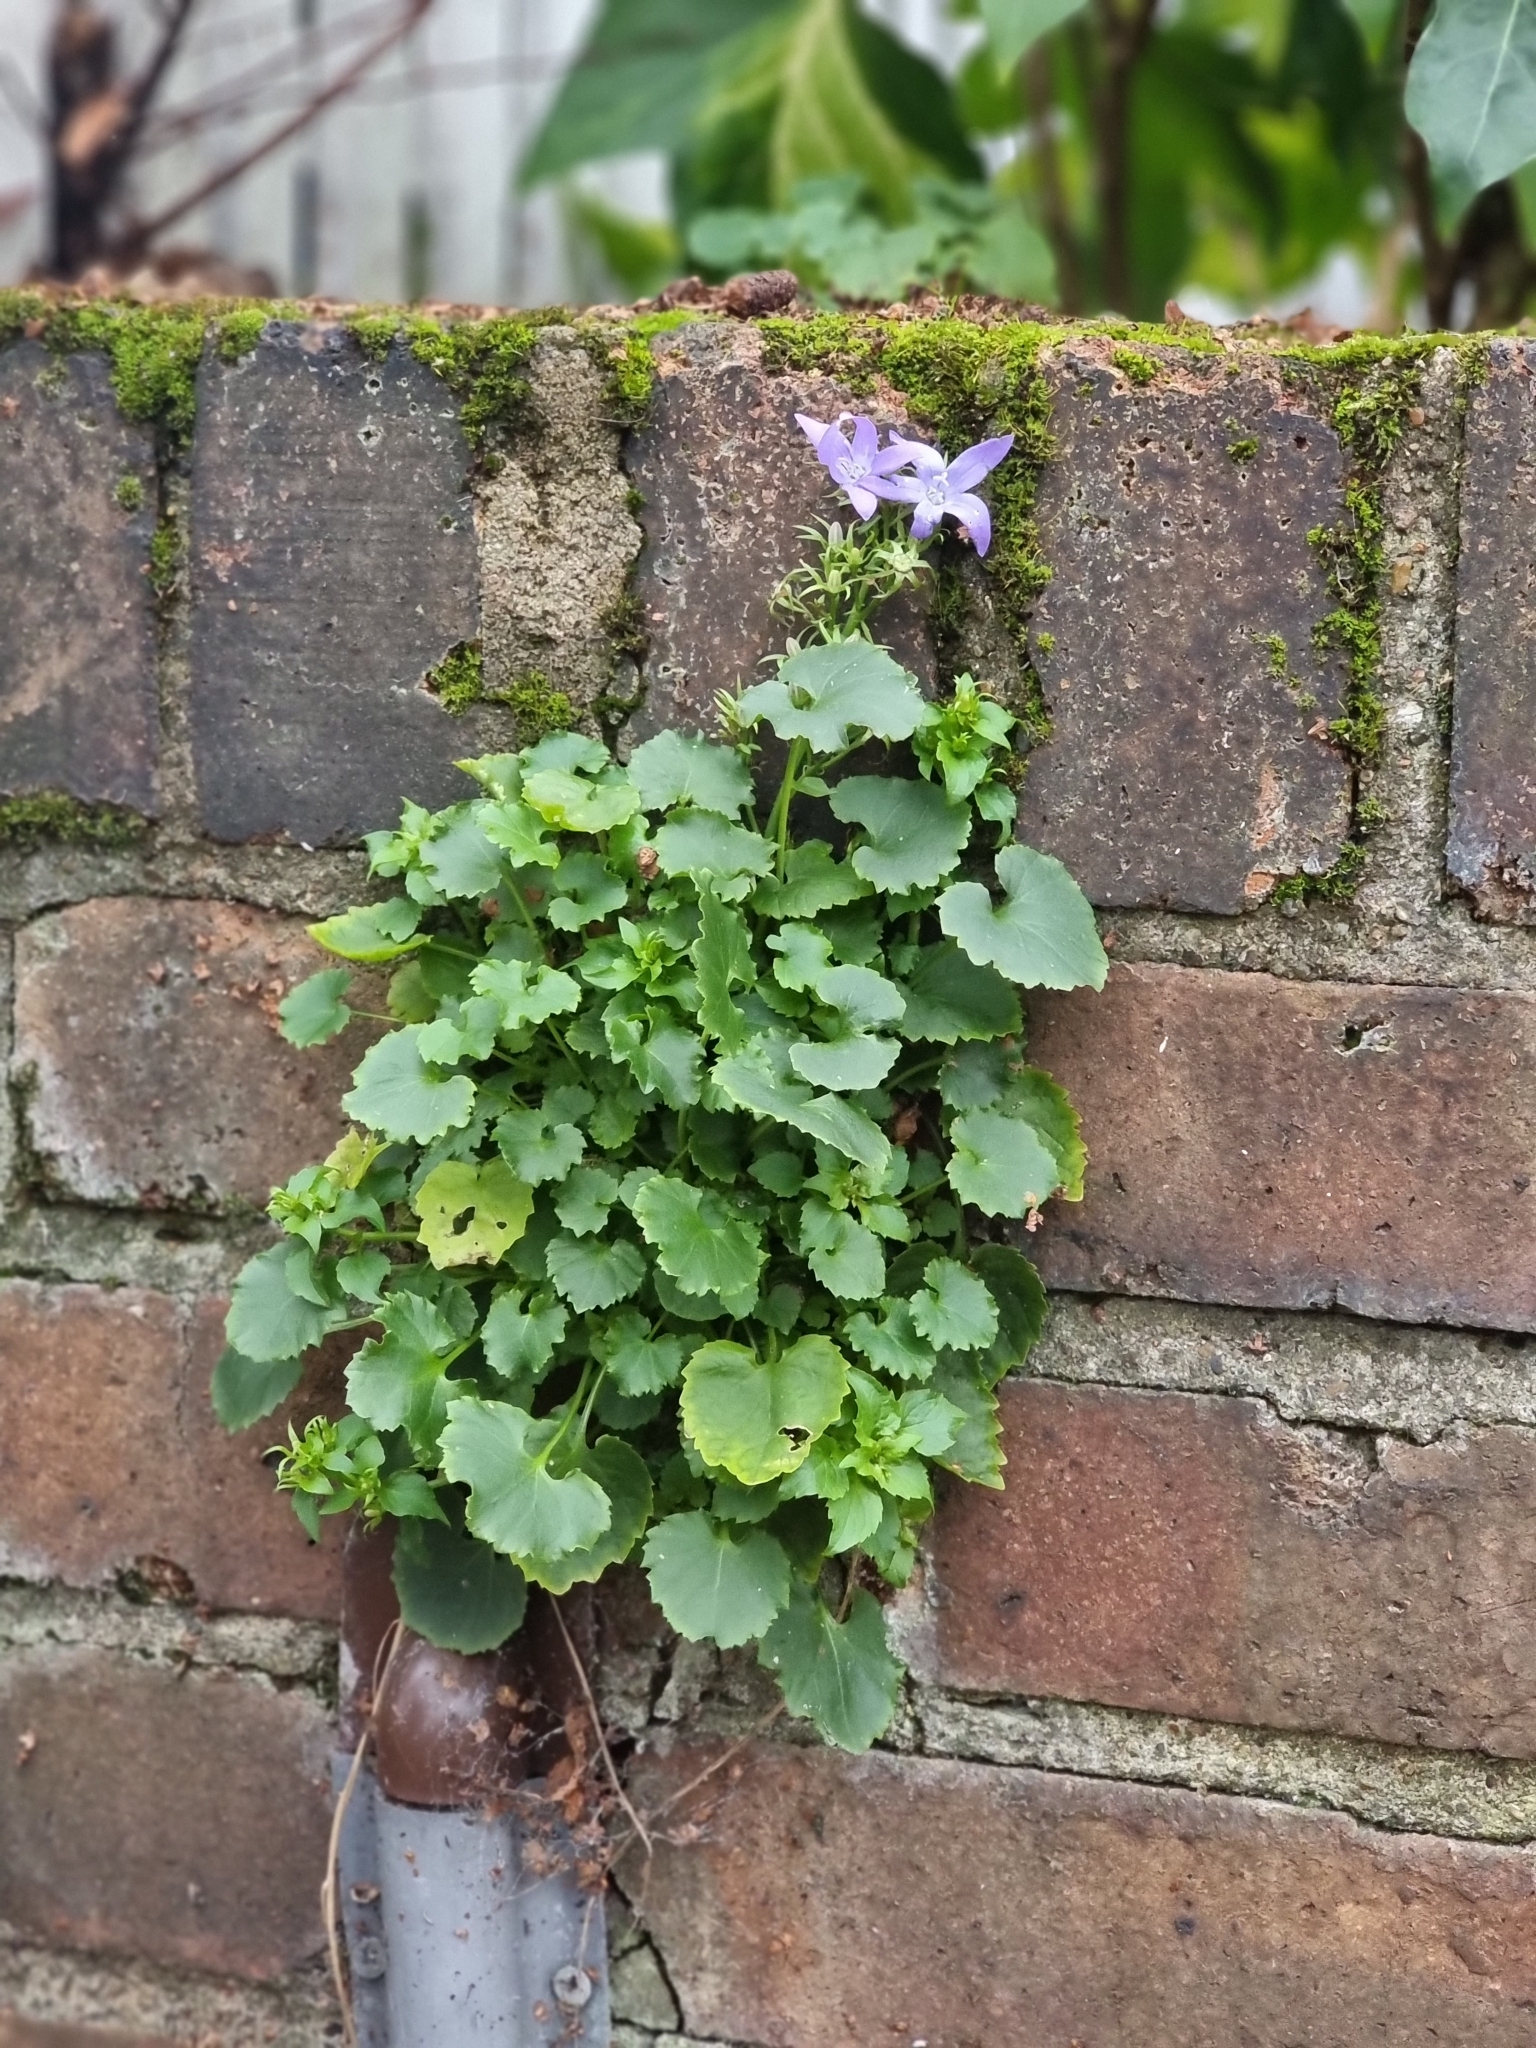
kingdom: Plantae
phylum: Tracheophyta
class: Magnoliopsida
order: Asterales
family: Campanulaceae
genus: Campanula
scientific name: Campanula poscharskyana
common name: Trailing bellflower
